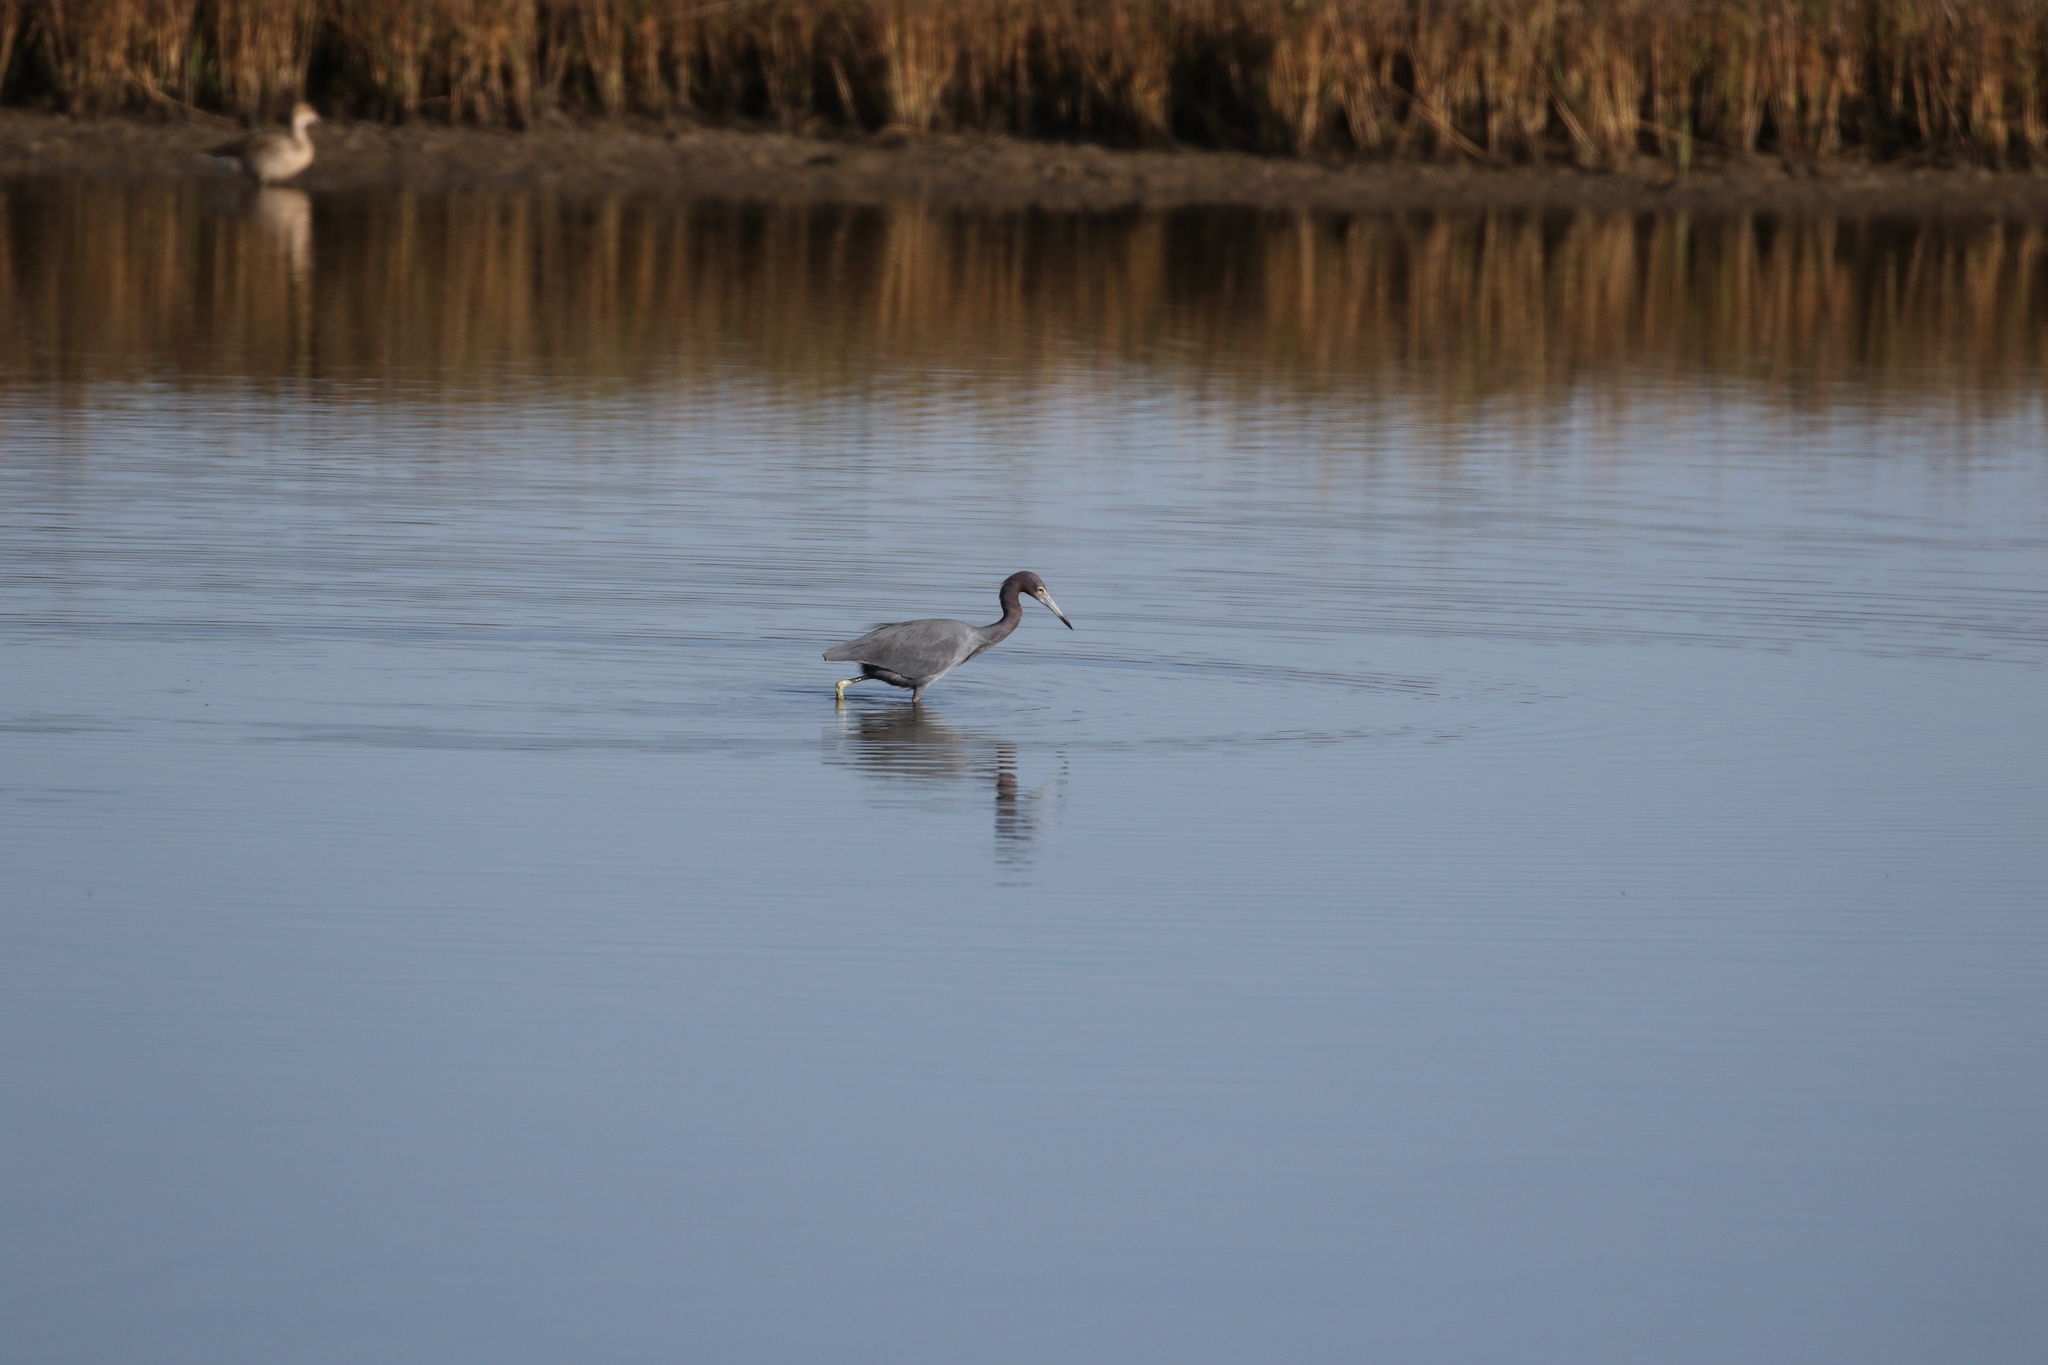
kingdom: Animalia
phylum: Chordata
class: Aves
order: Pelecaniformes
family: Ardeidae
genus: Egretta
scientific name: Egretta caerulea
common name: Little blue heron
